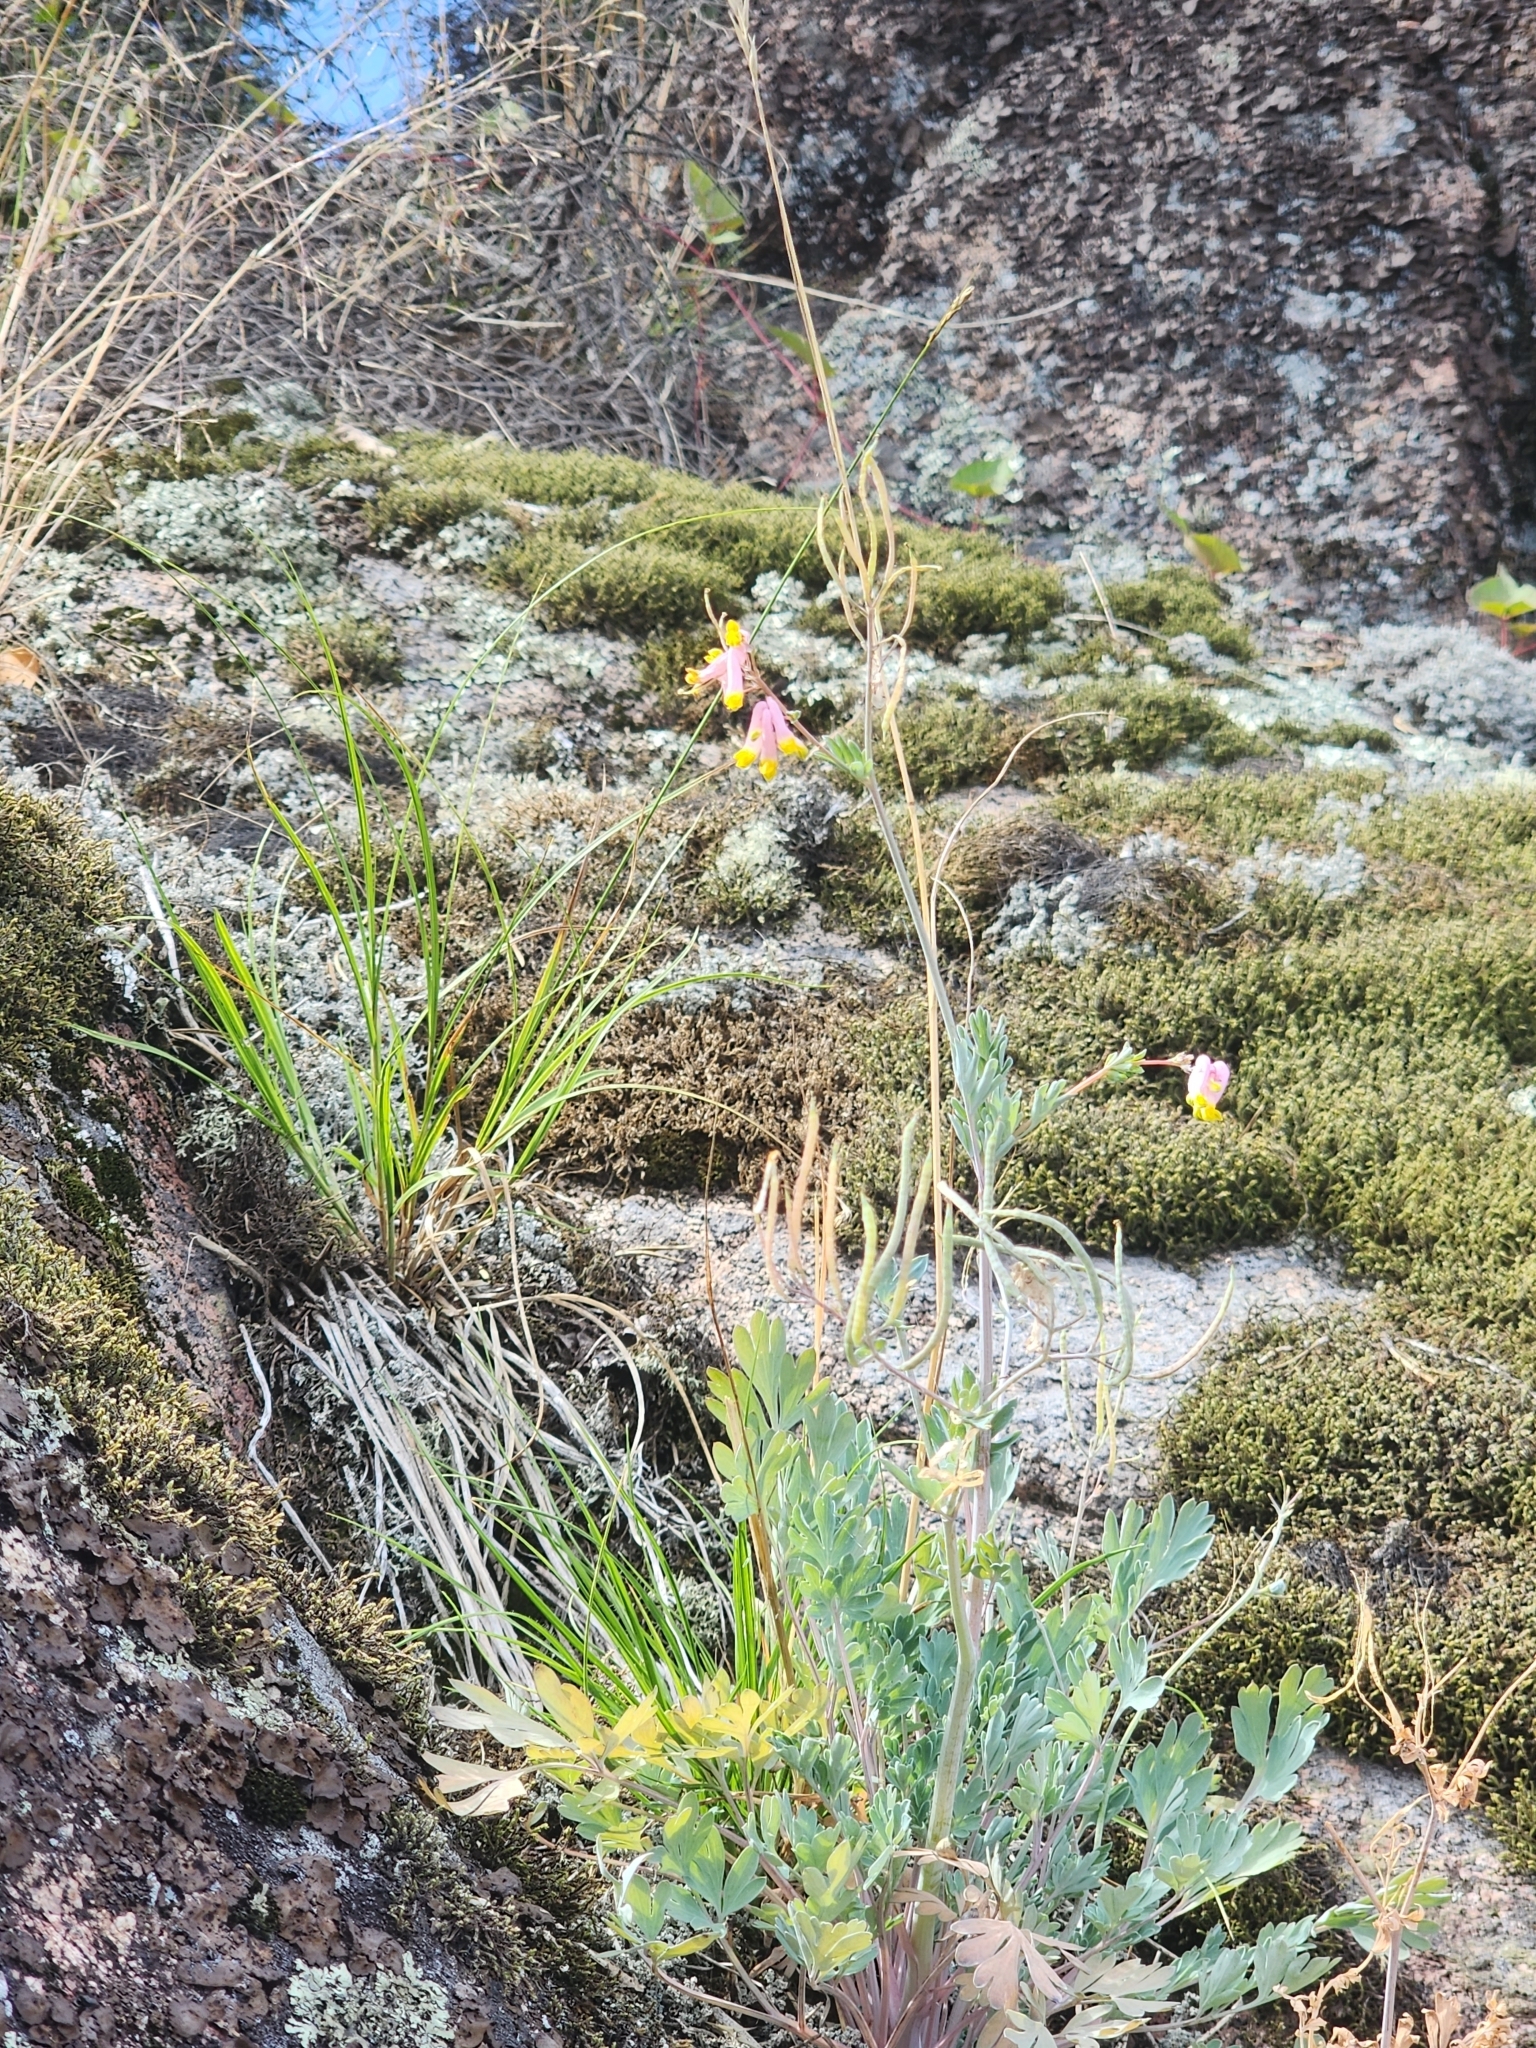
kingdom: Plantae
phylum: Tracheophyta
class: Magnoliopsida
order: Ranunculales
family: Papaveraceae
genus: Capnoides
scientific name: Capnoides sempervirens
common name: Rock harlequin
